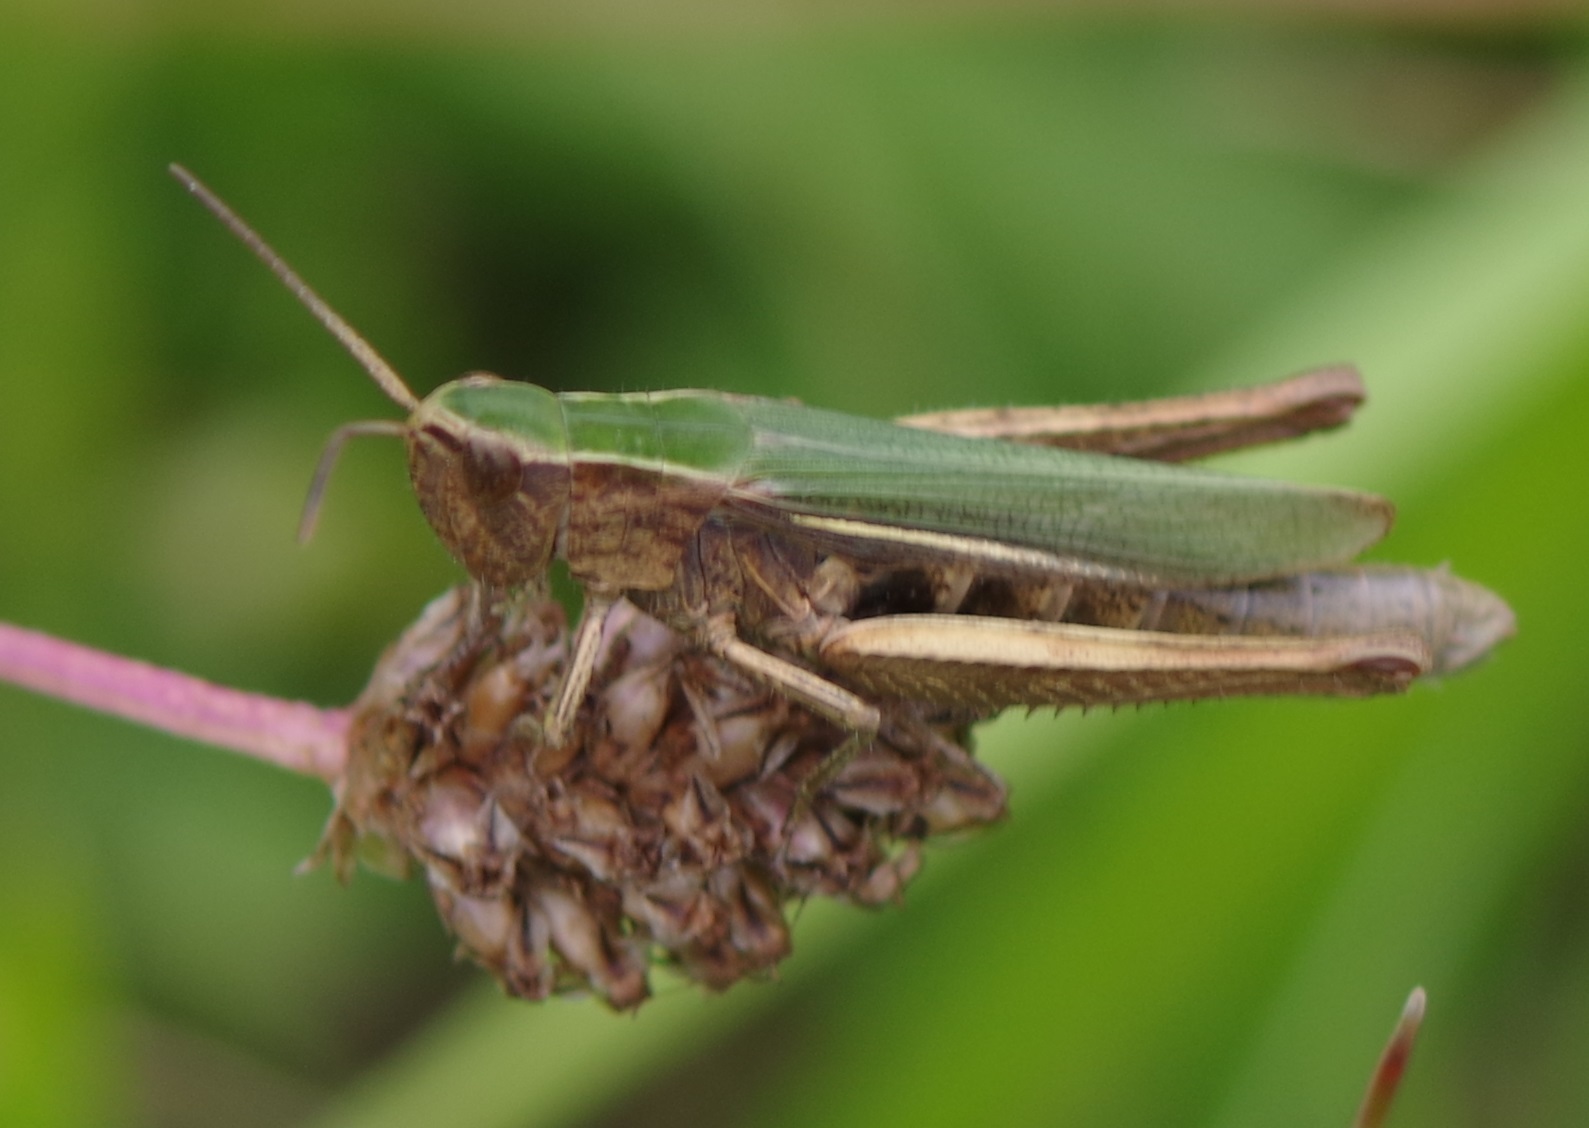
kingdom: Animalia
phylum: Arthropoda
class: Insecta
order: Orthoptera
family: Acrididae
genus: Chorthippus
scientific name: Chorthippus albomarginatus
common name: Lesser marsh grasshopper
